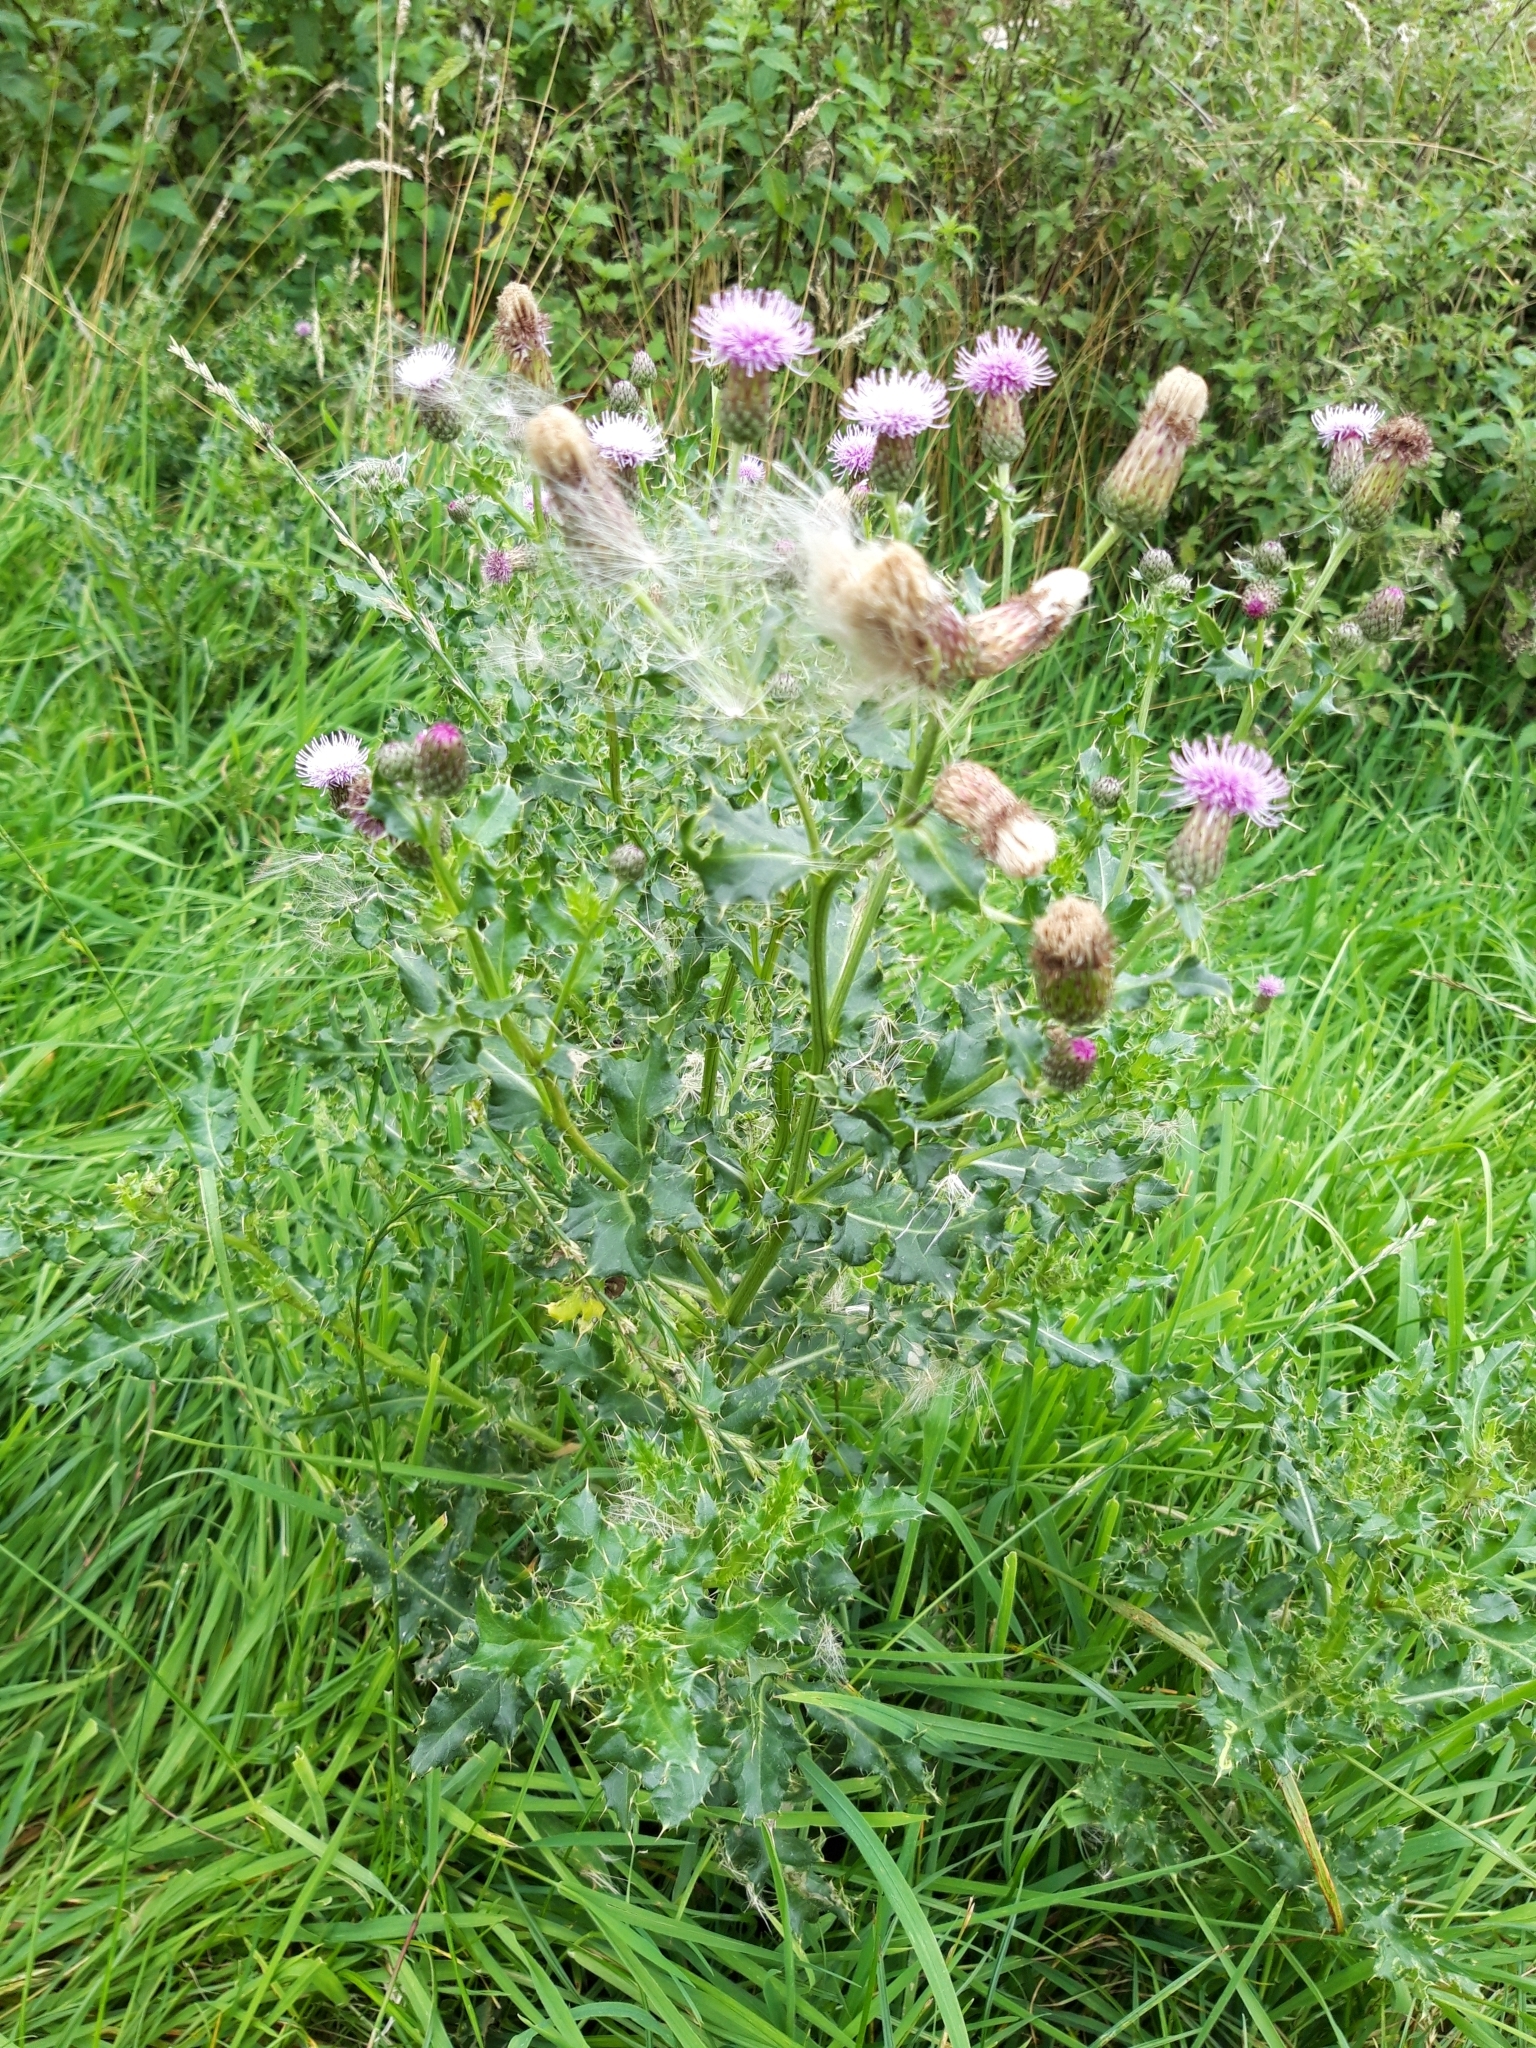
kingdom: Plantae
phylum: Tracheophyta
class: Magnoliopsida
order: Asterales
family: Asteraceae
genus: Cirsium
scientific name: Cirsium arvense
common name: Creeping thistle
